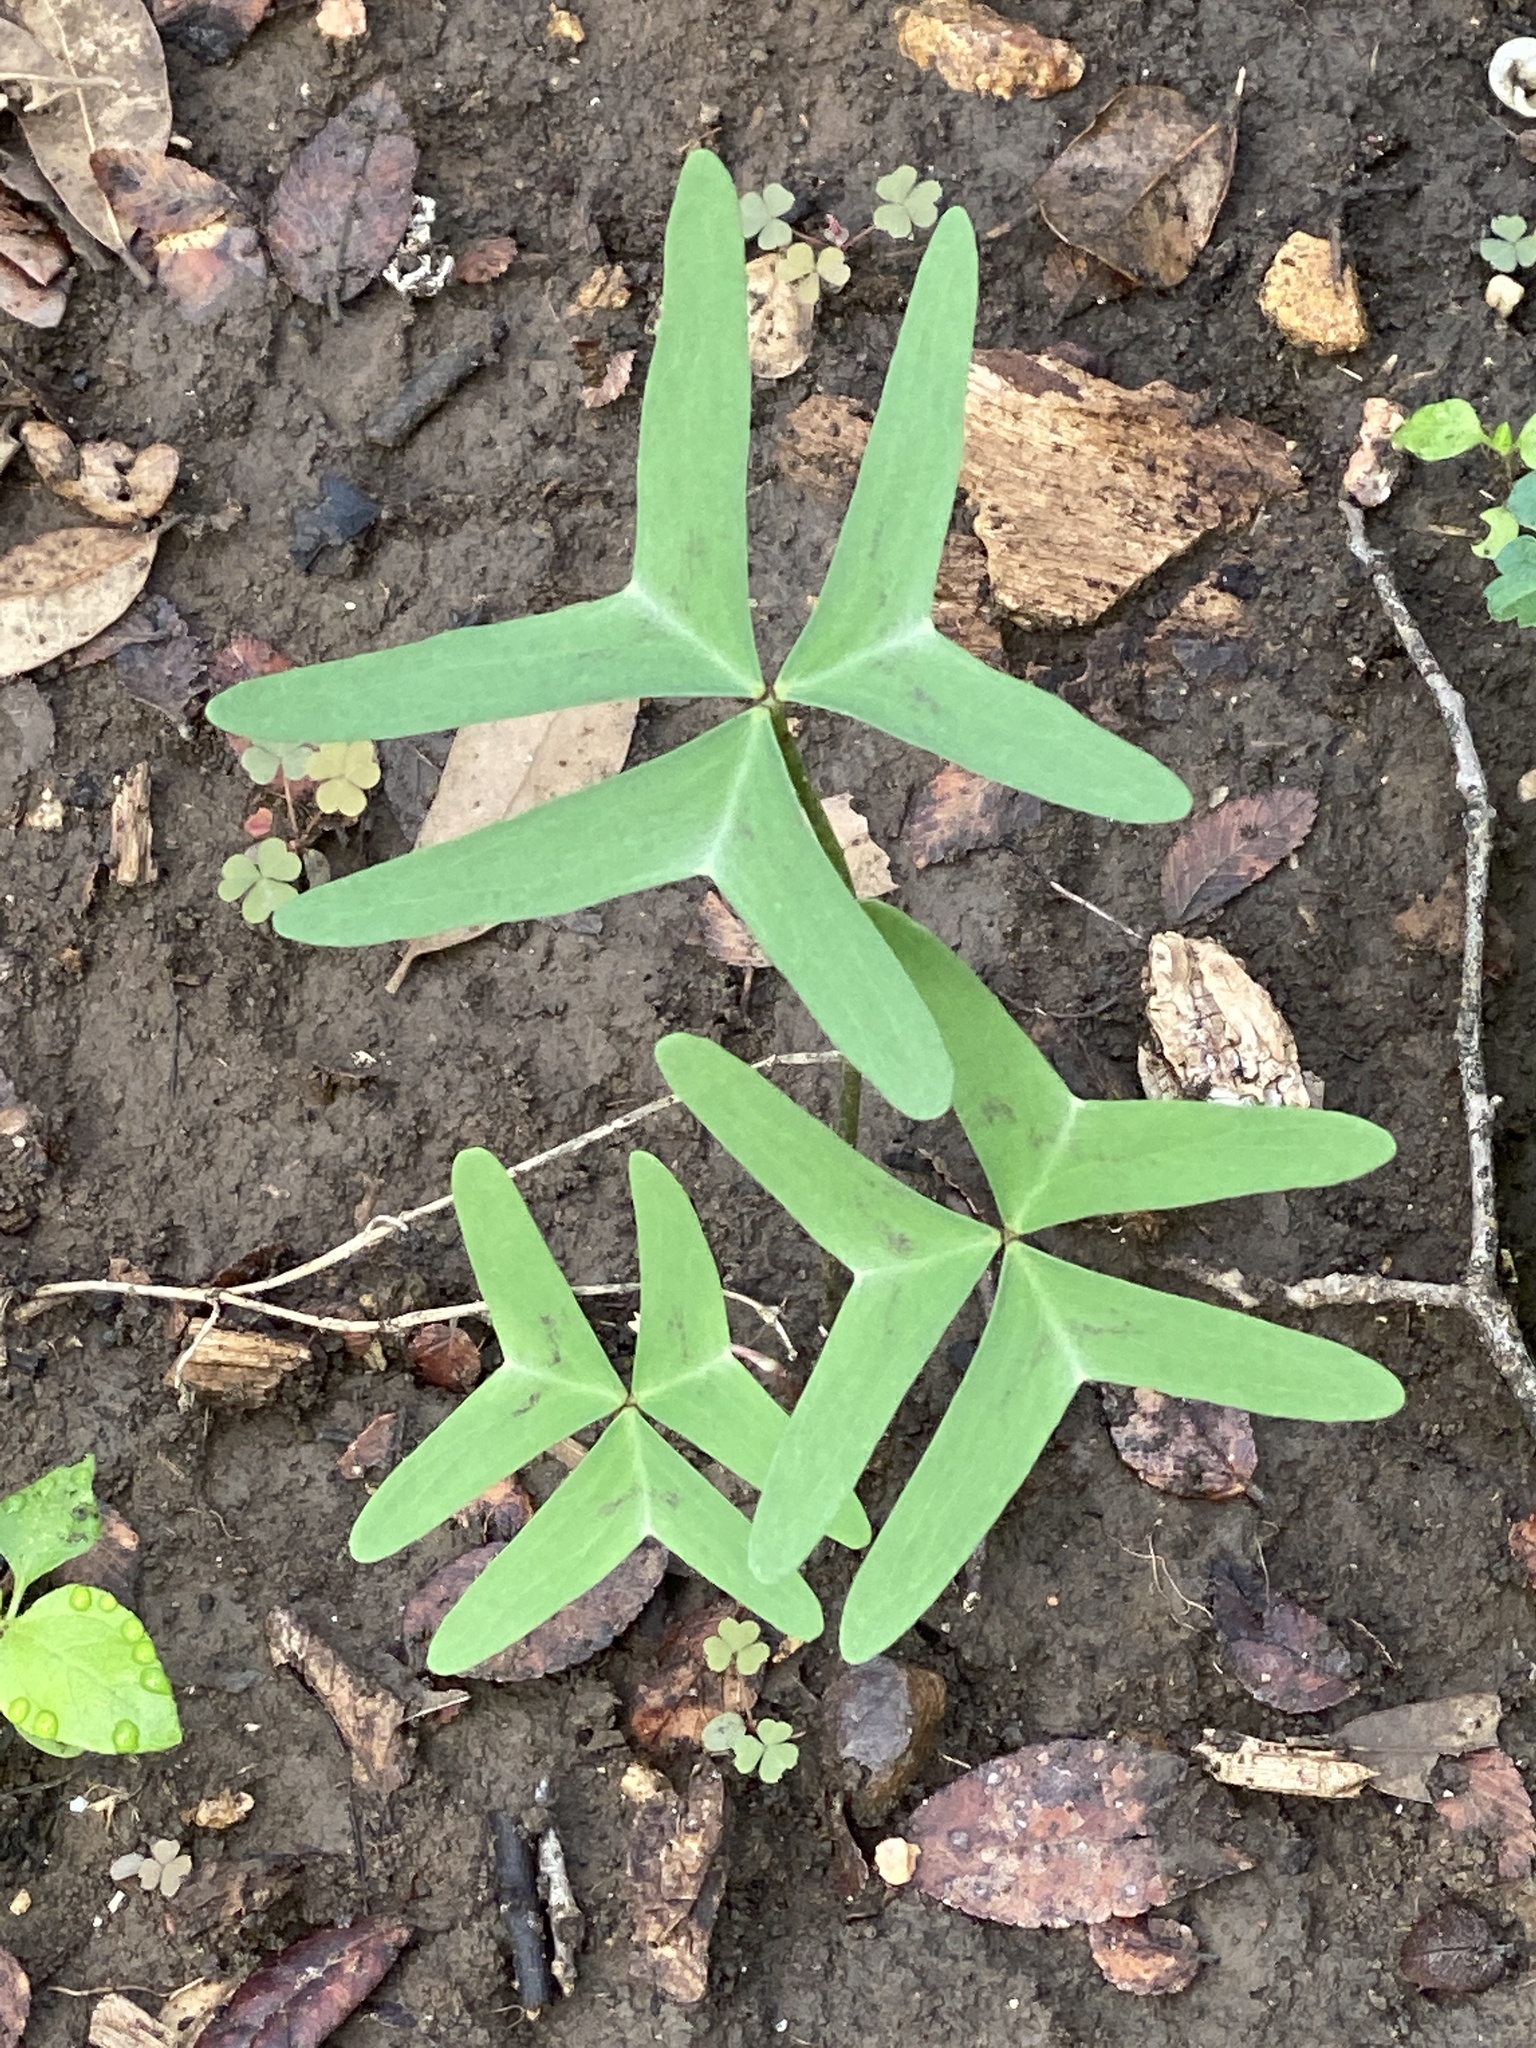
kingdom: Plantae
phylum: Tracheophyta
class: Magnoliopsida
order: Oxalidales
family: Oxalidaceae
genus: Oxalis
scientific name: Oxalis drummondii
